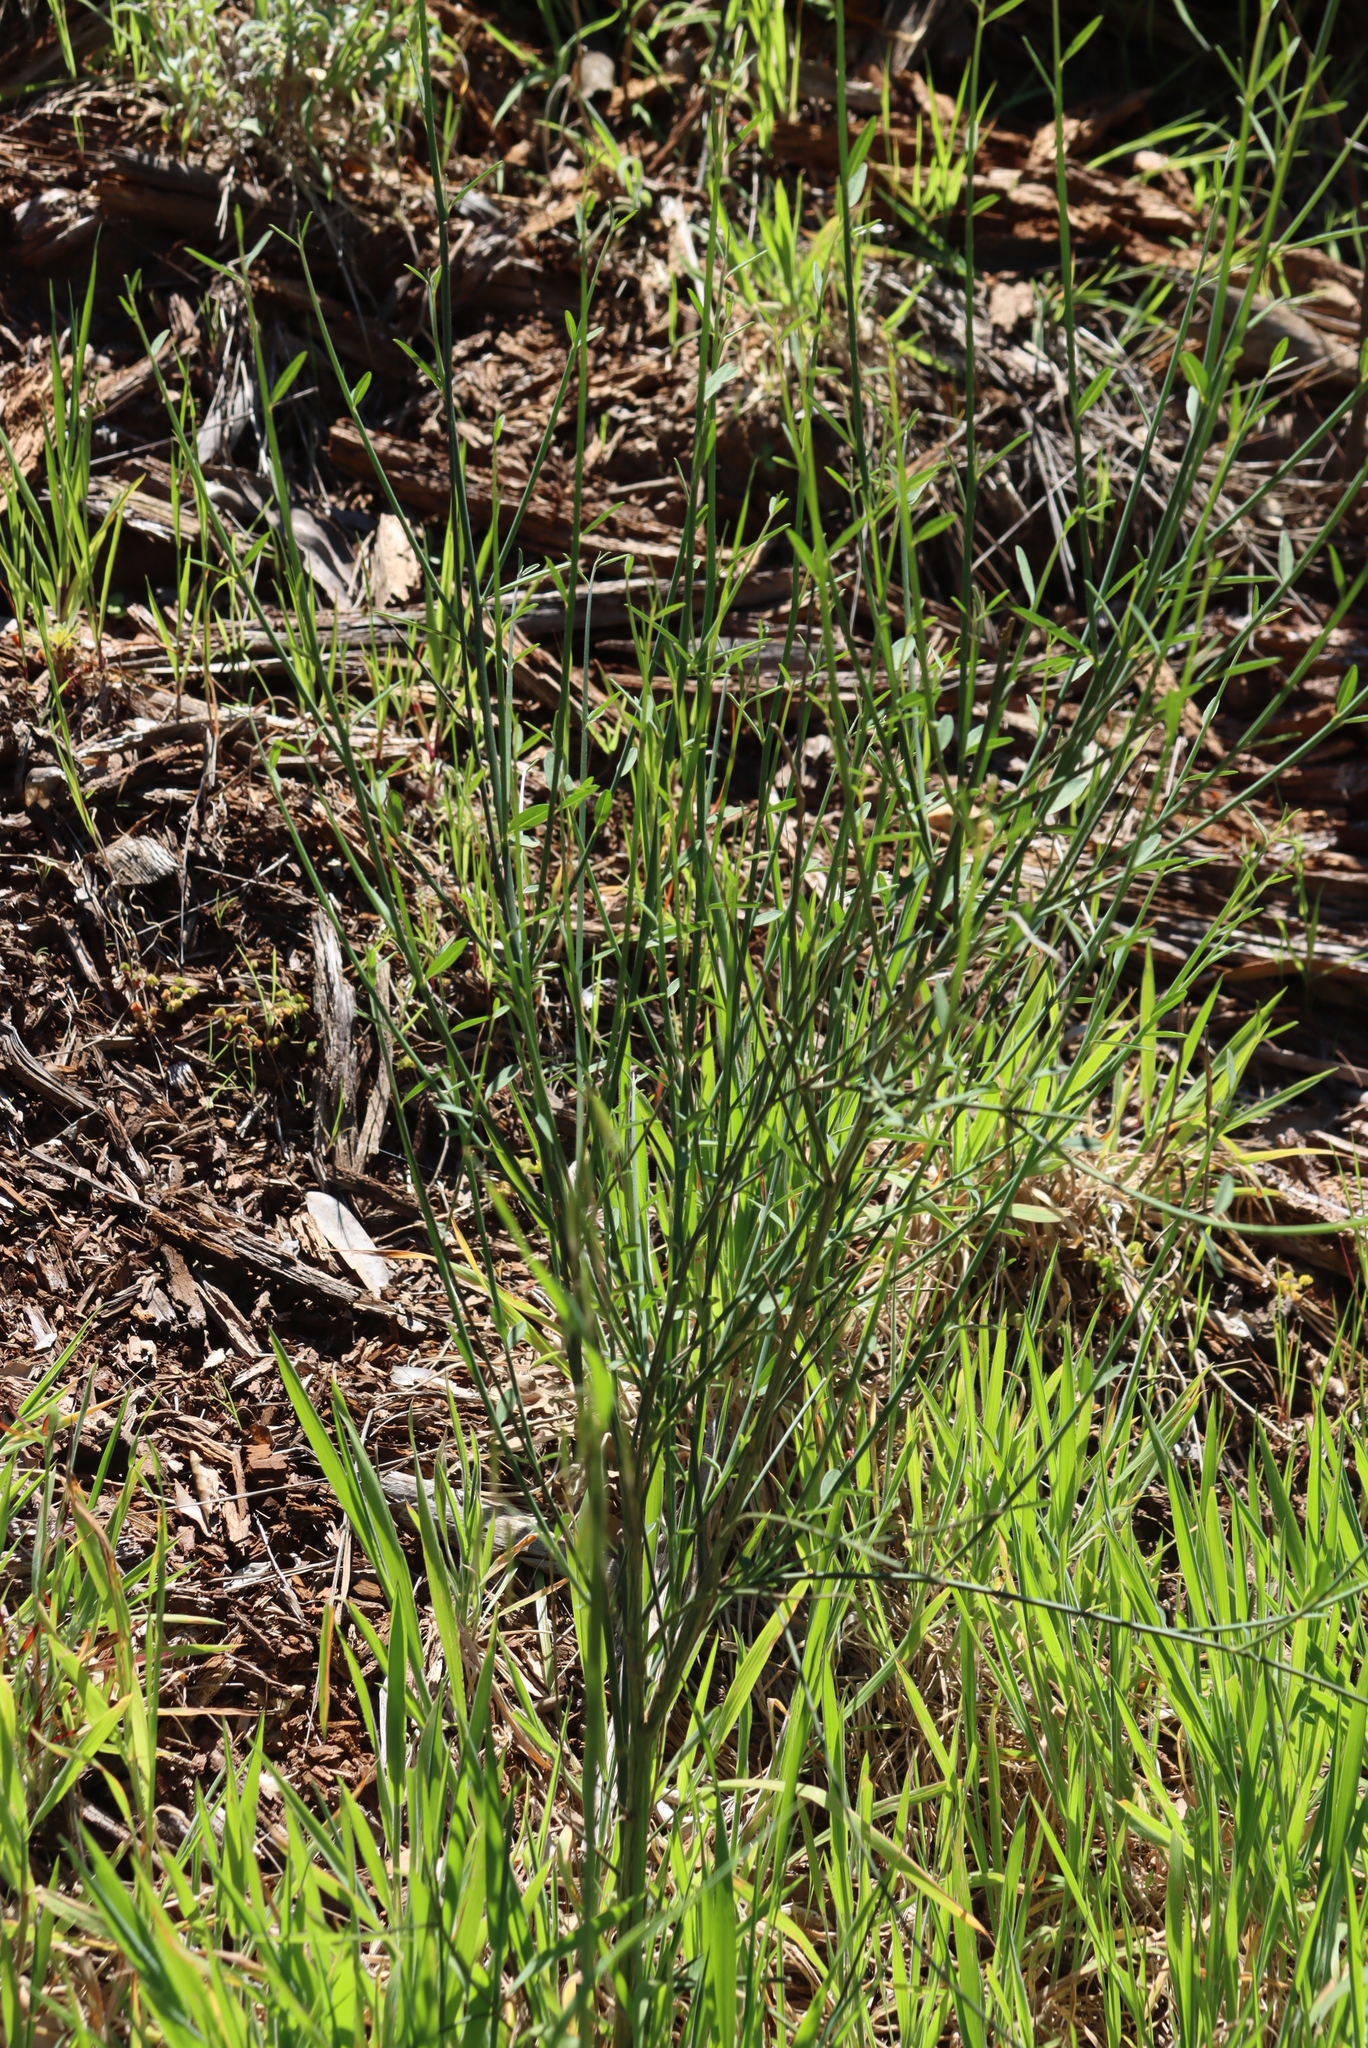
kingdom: Plantae
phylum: Tracheophyta
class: Magnoliopsida
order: Fabales
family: Fabaceae
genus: Spartium
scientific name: Spartium junceum
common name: Spanish broom
